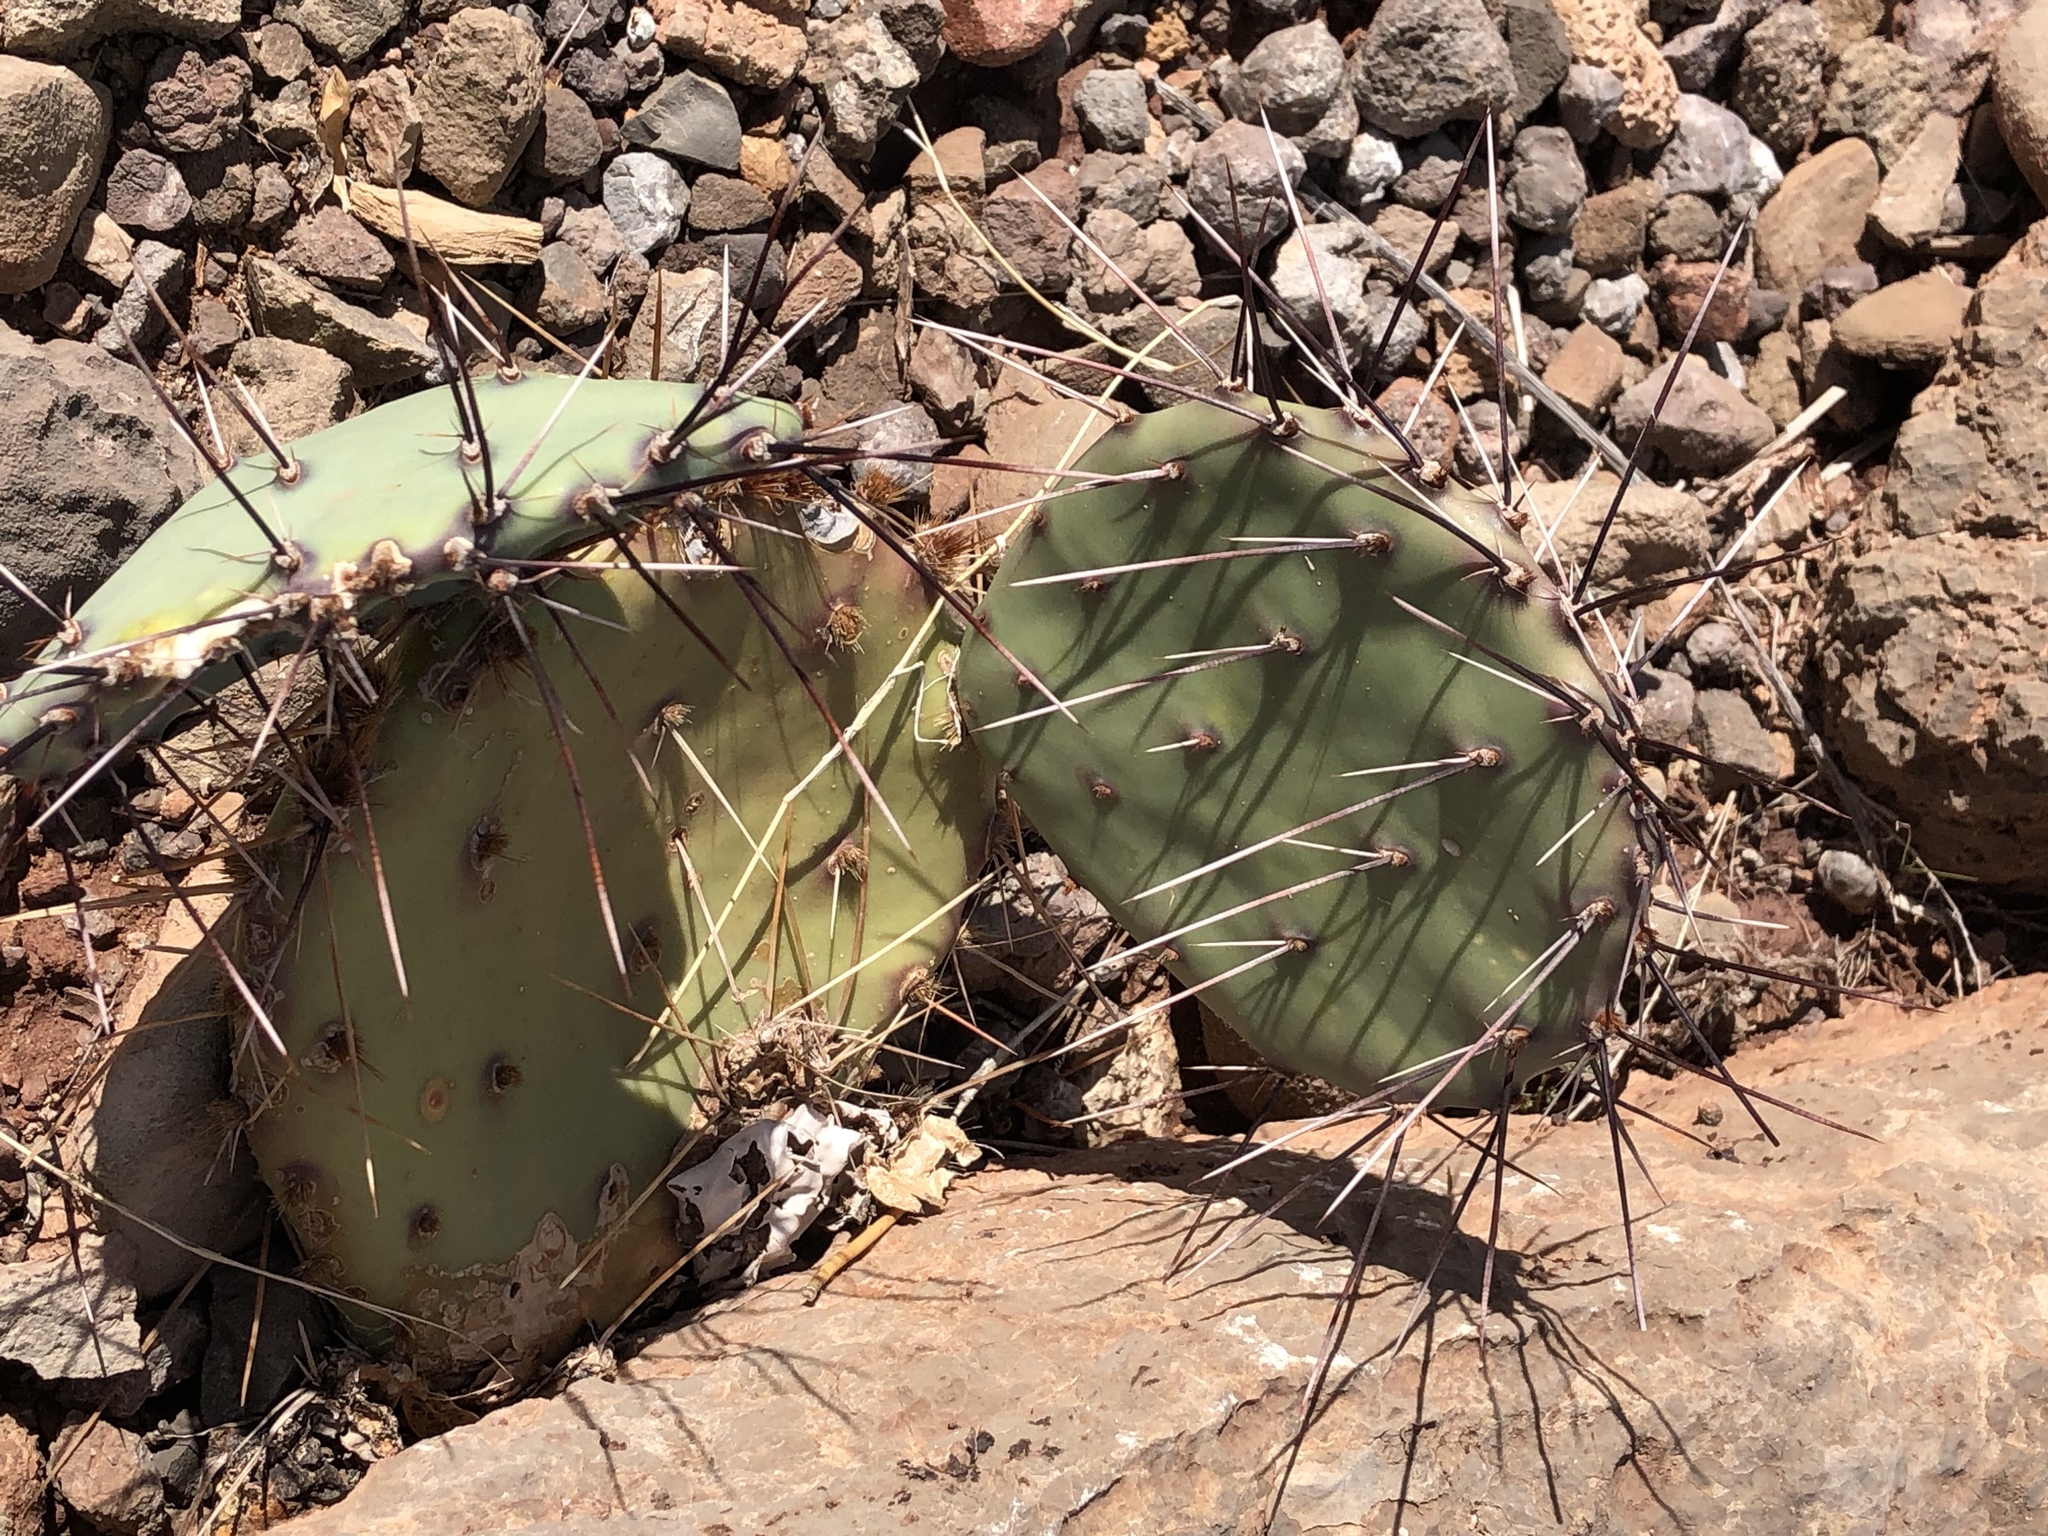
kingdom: Plantae
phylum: Tracheophyta
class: Magnoliopsida
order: Caryophyllales
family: Cactaceae
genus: Opuntia
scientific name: Opuntia phaeacantha
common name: New mexico prickly-pear
